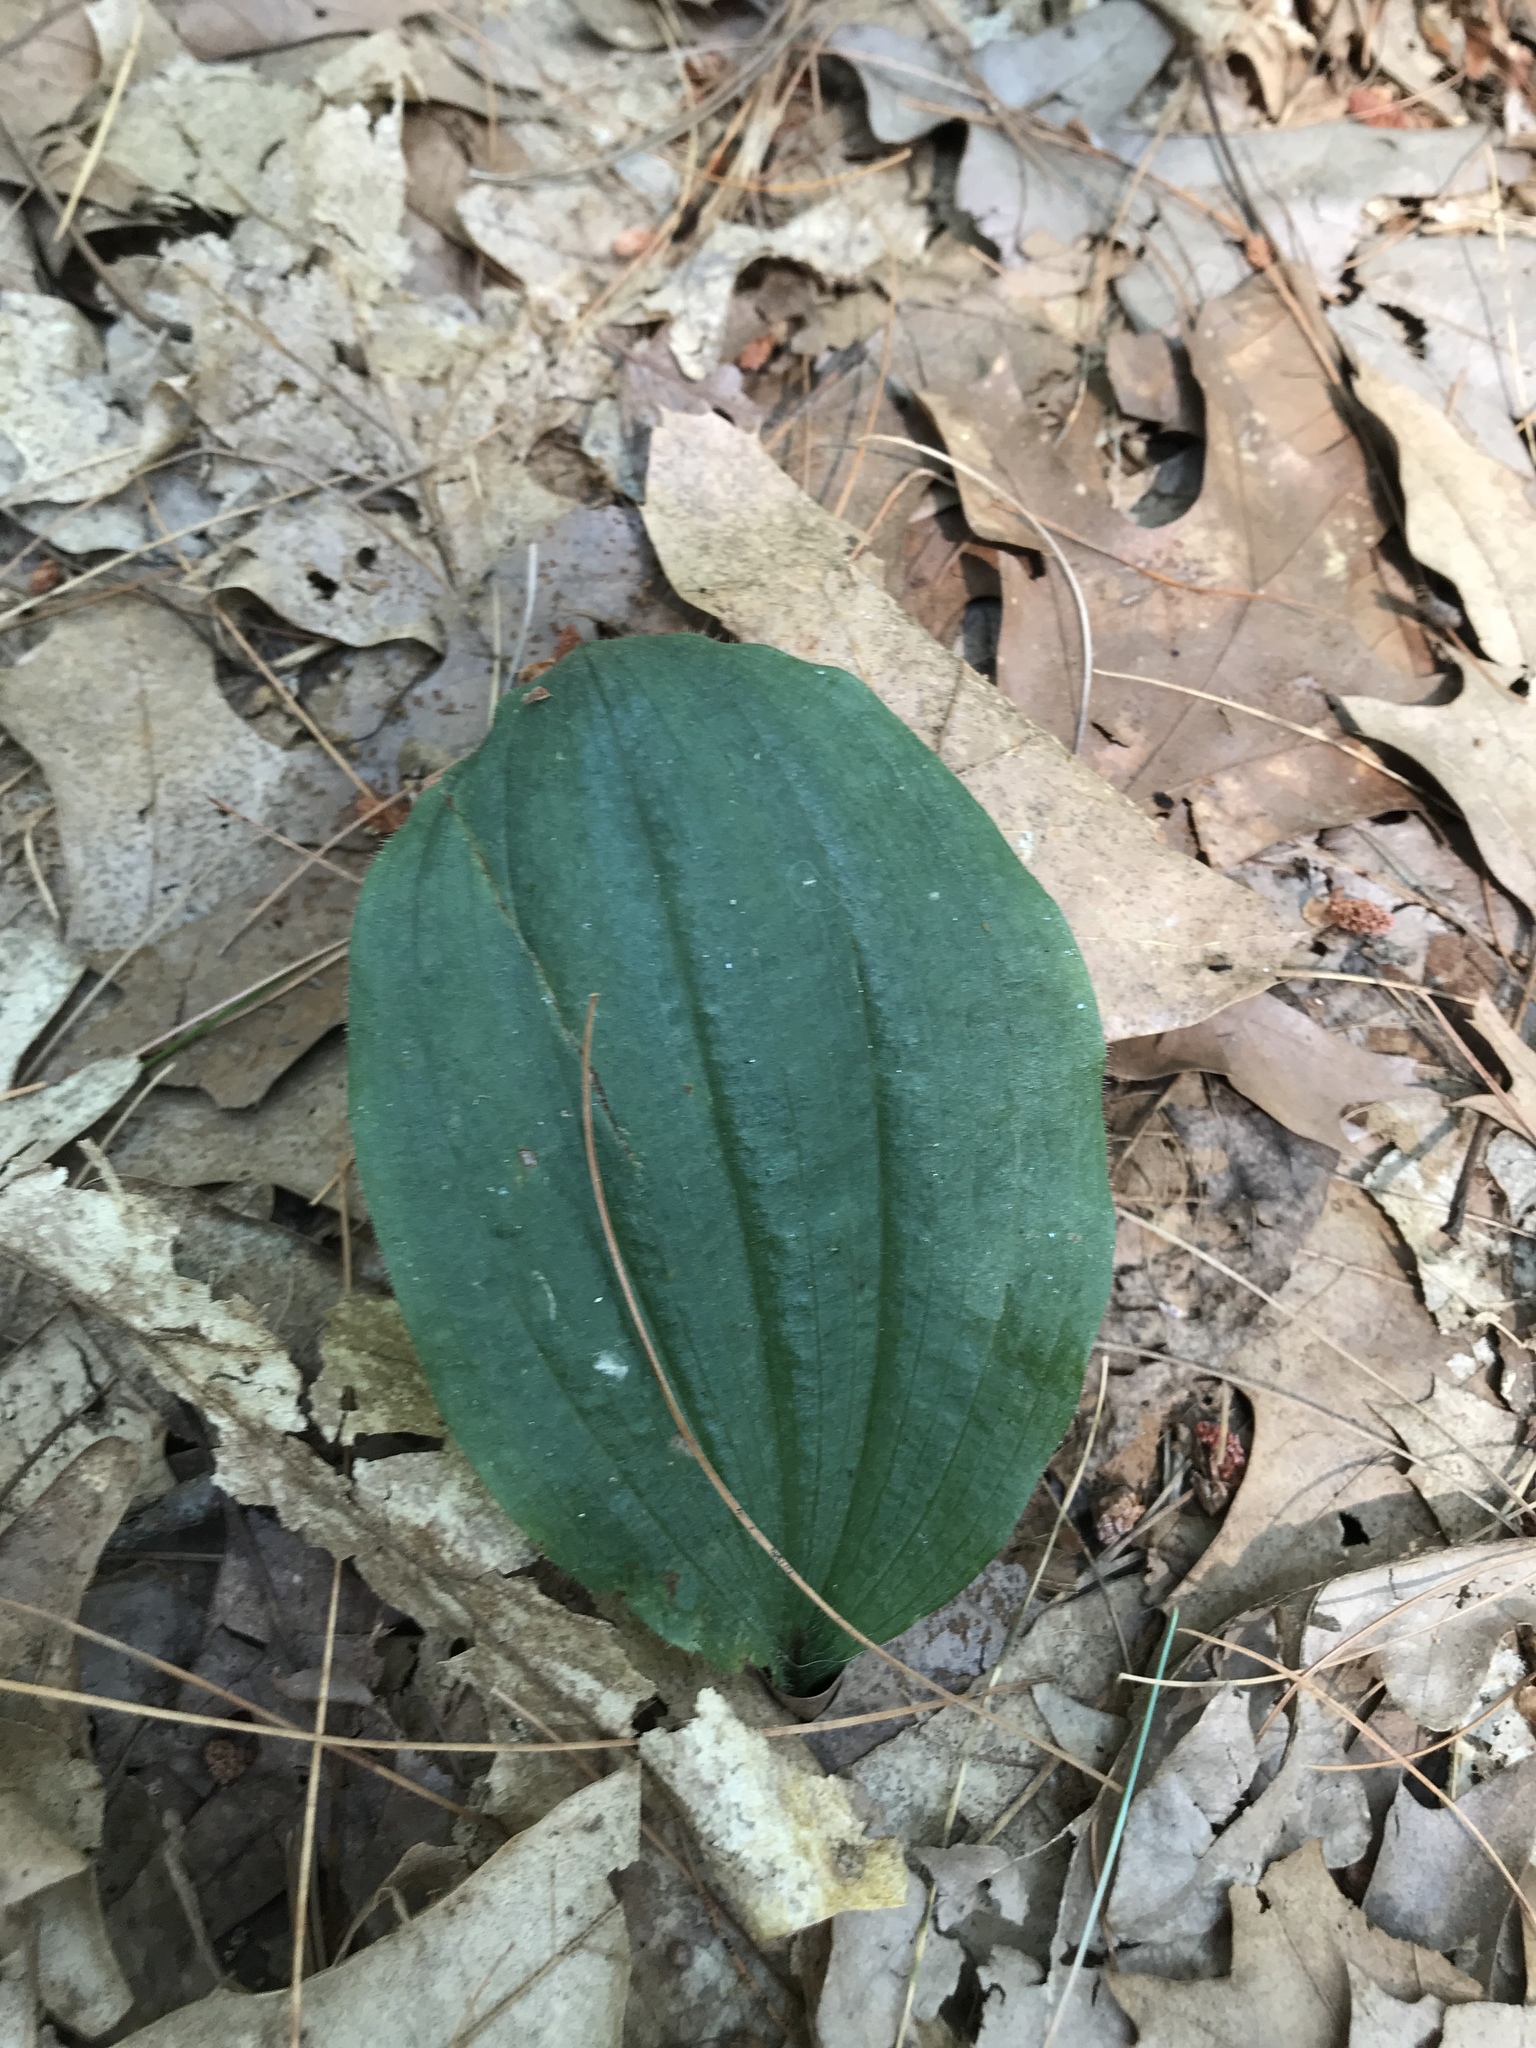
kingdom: Plantae
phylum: Tracheophyta
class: Liliopsida
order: Asparagales
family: Orchidaceae
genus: Cypripedium
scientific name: Cypripedium acaule
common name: Pink lady's-slipper
